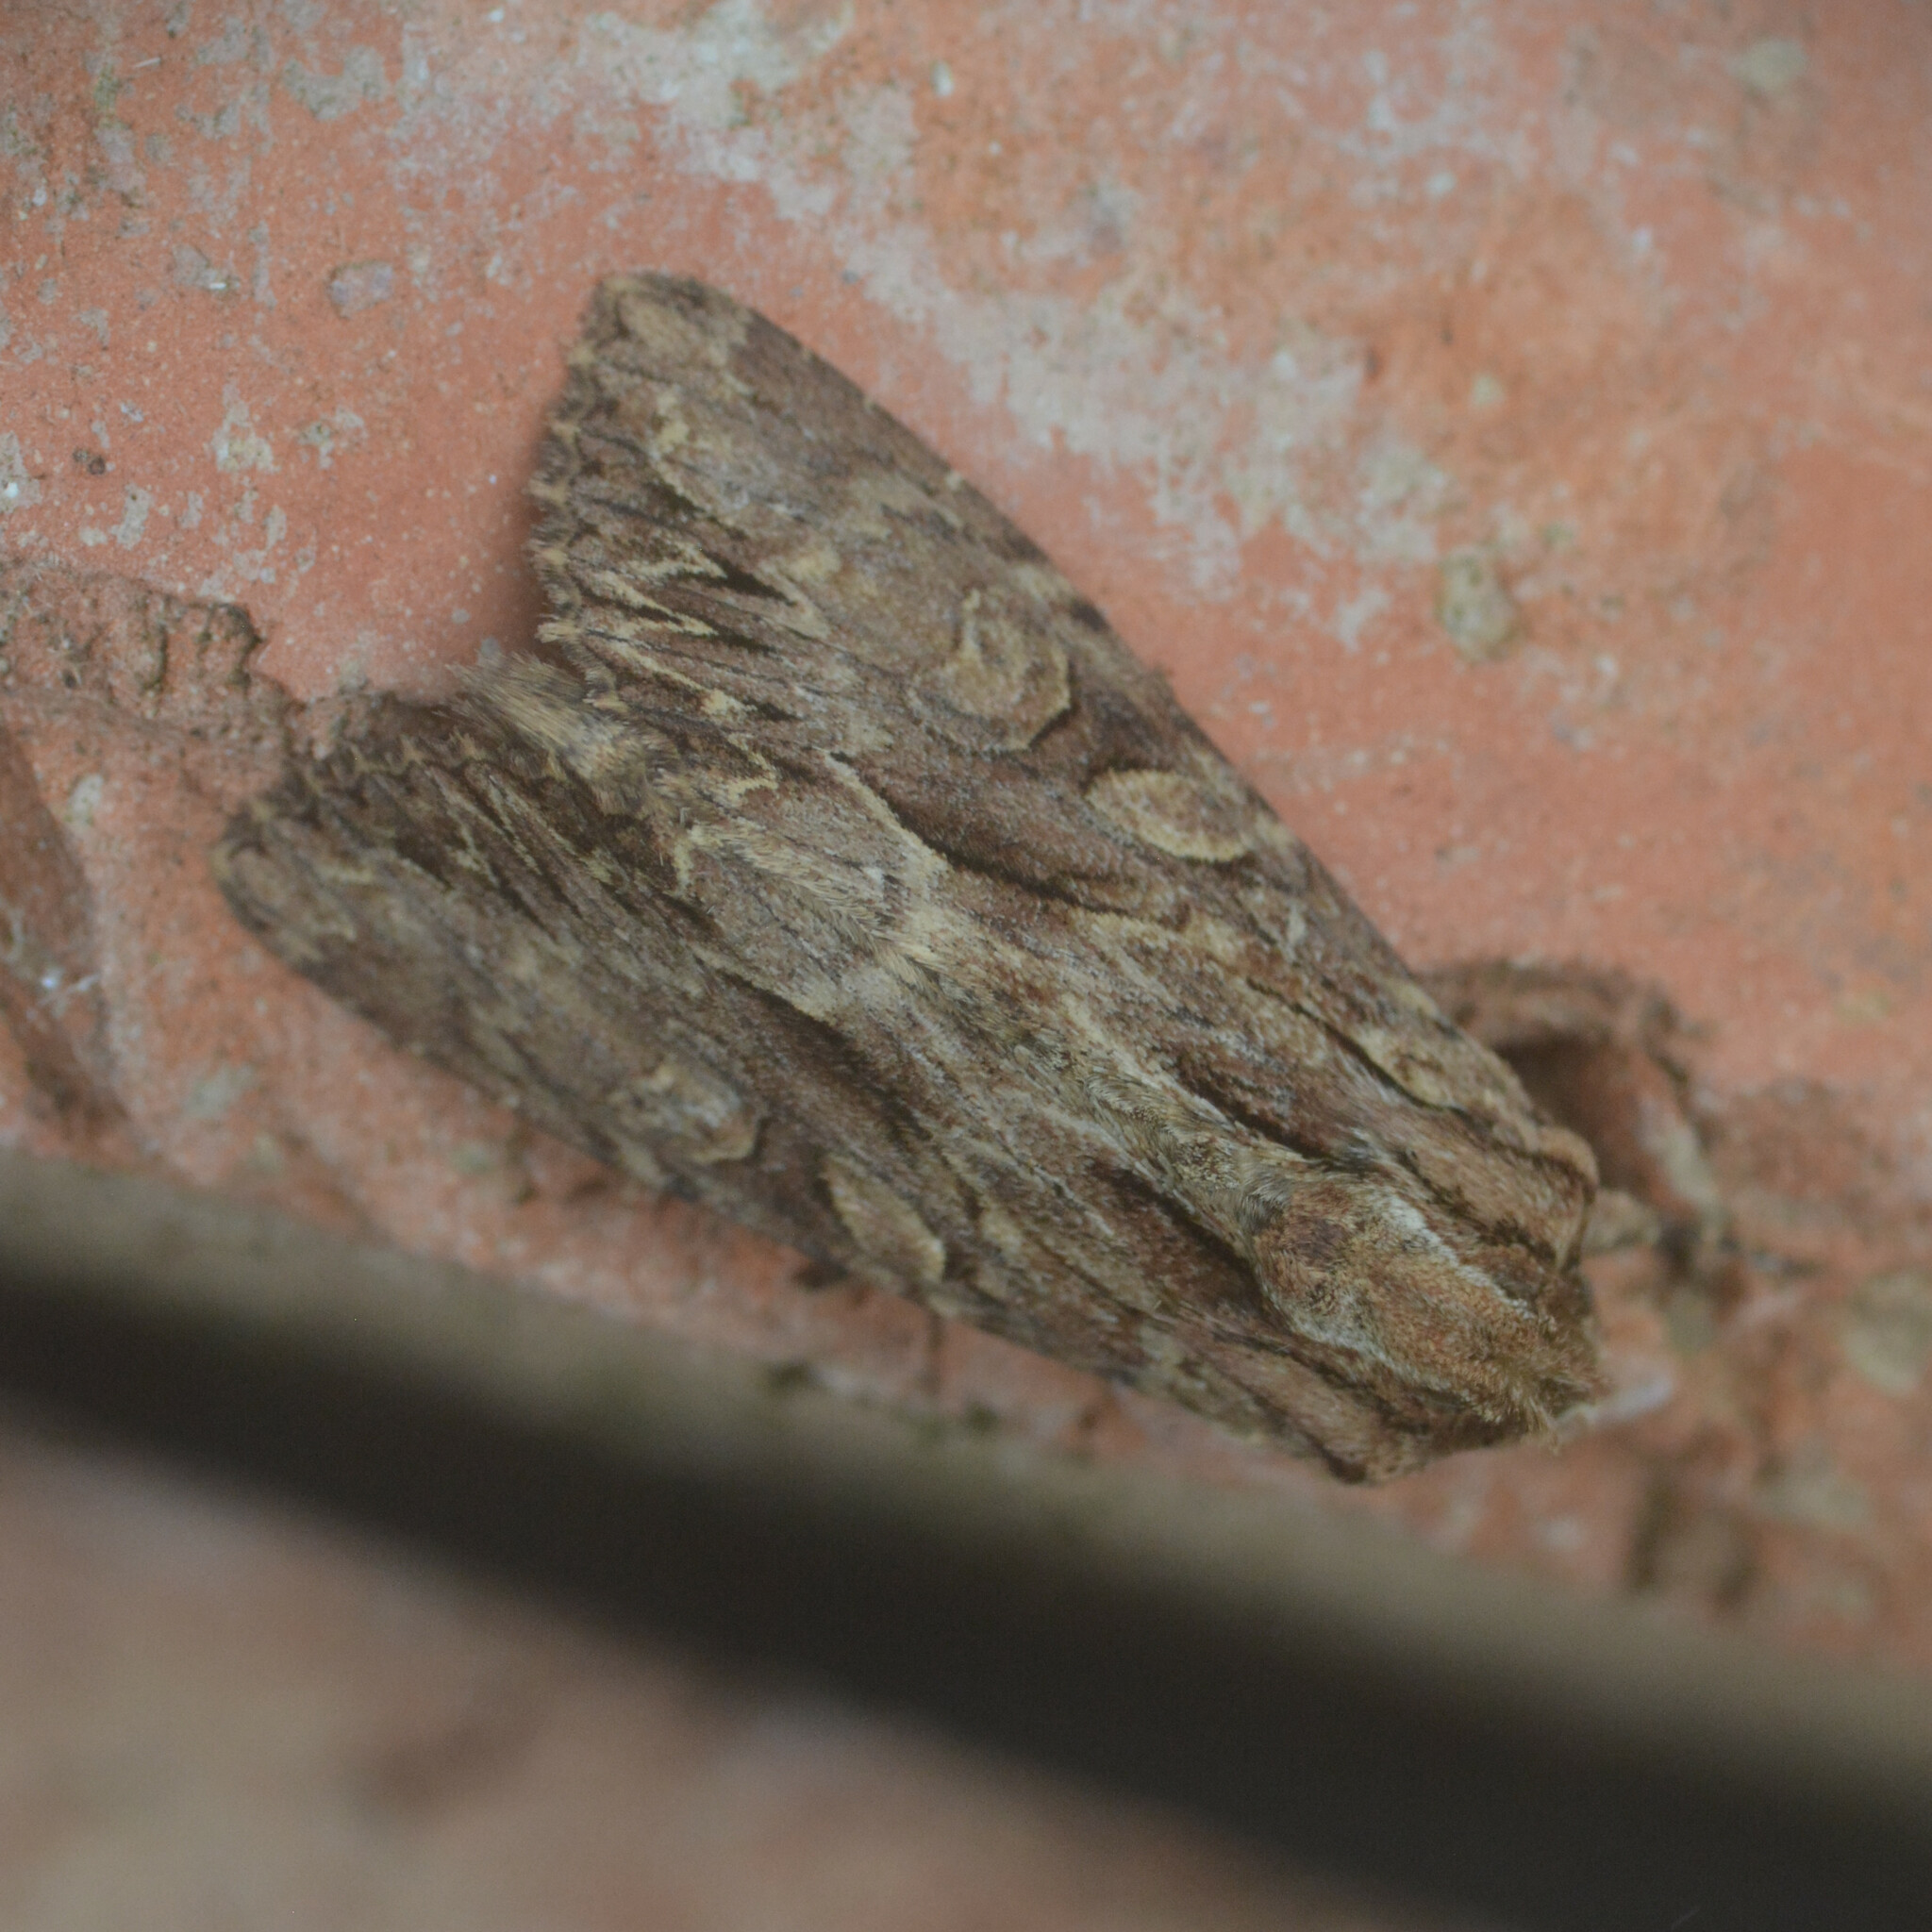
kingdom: Animalia
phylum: Arthropoda
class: Insecta
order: Lepidoptera
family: Noctuidae
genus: Apamea
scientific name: Apamea monoglypha
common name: Dark arches
